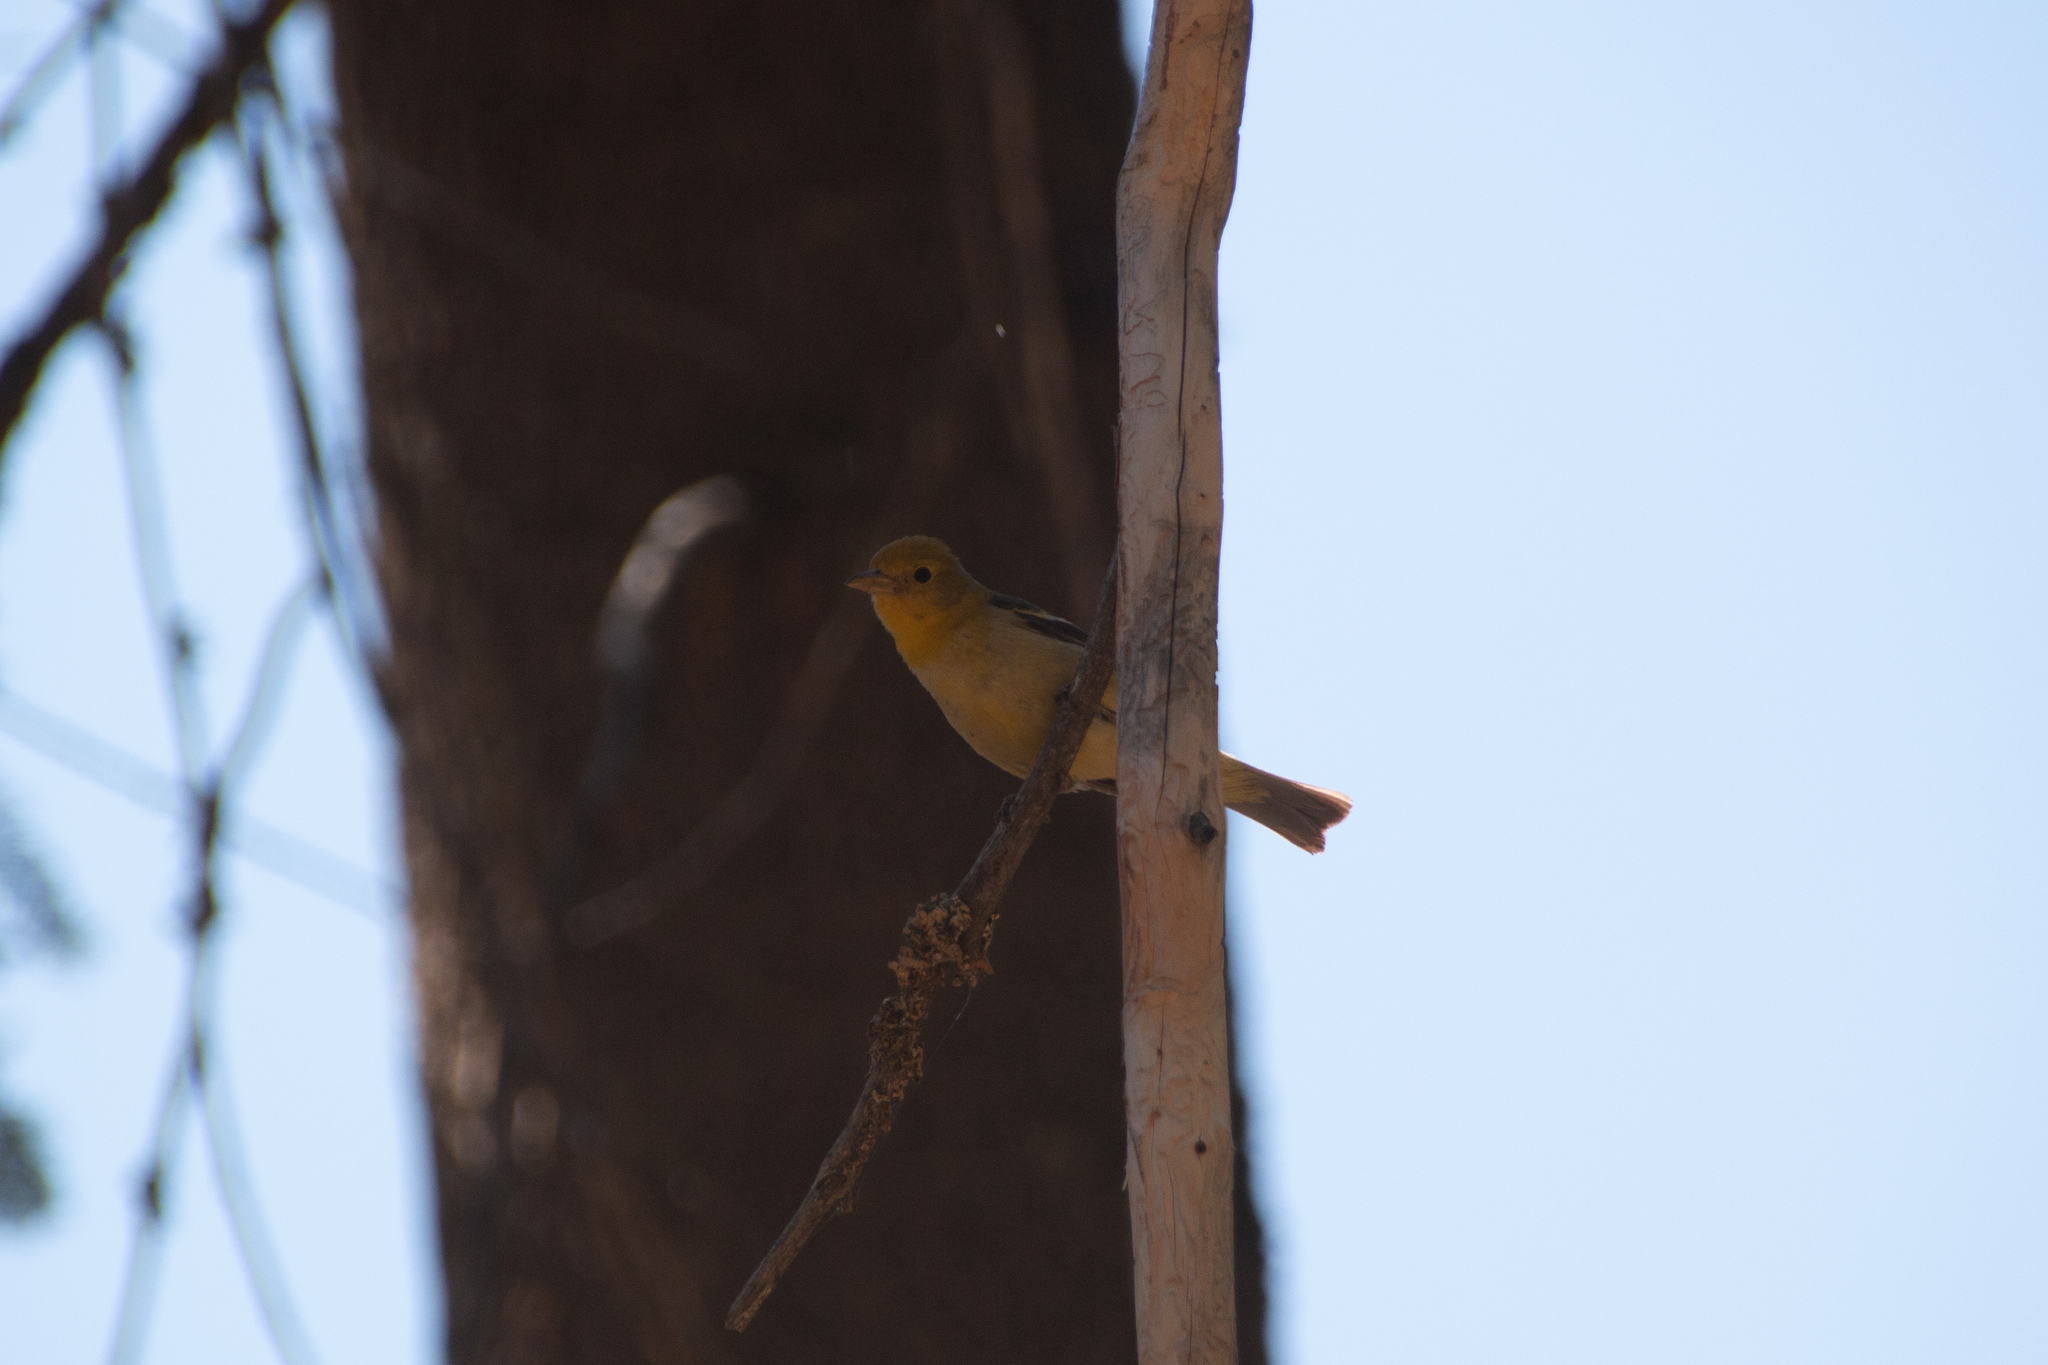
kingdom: Animalia
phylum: Chordata
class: Aves
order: Passeriformes
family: Cardinalidae
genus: Piranga
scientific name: Piranga ludoviciana
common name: Western tanager
